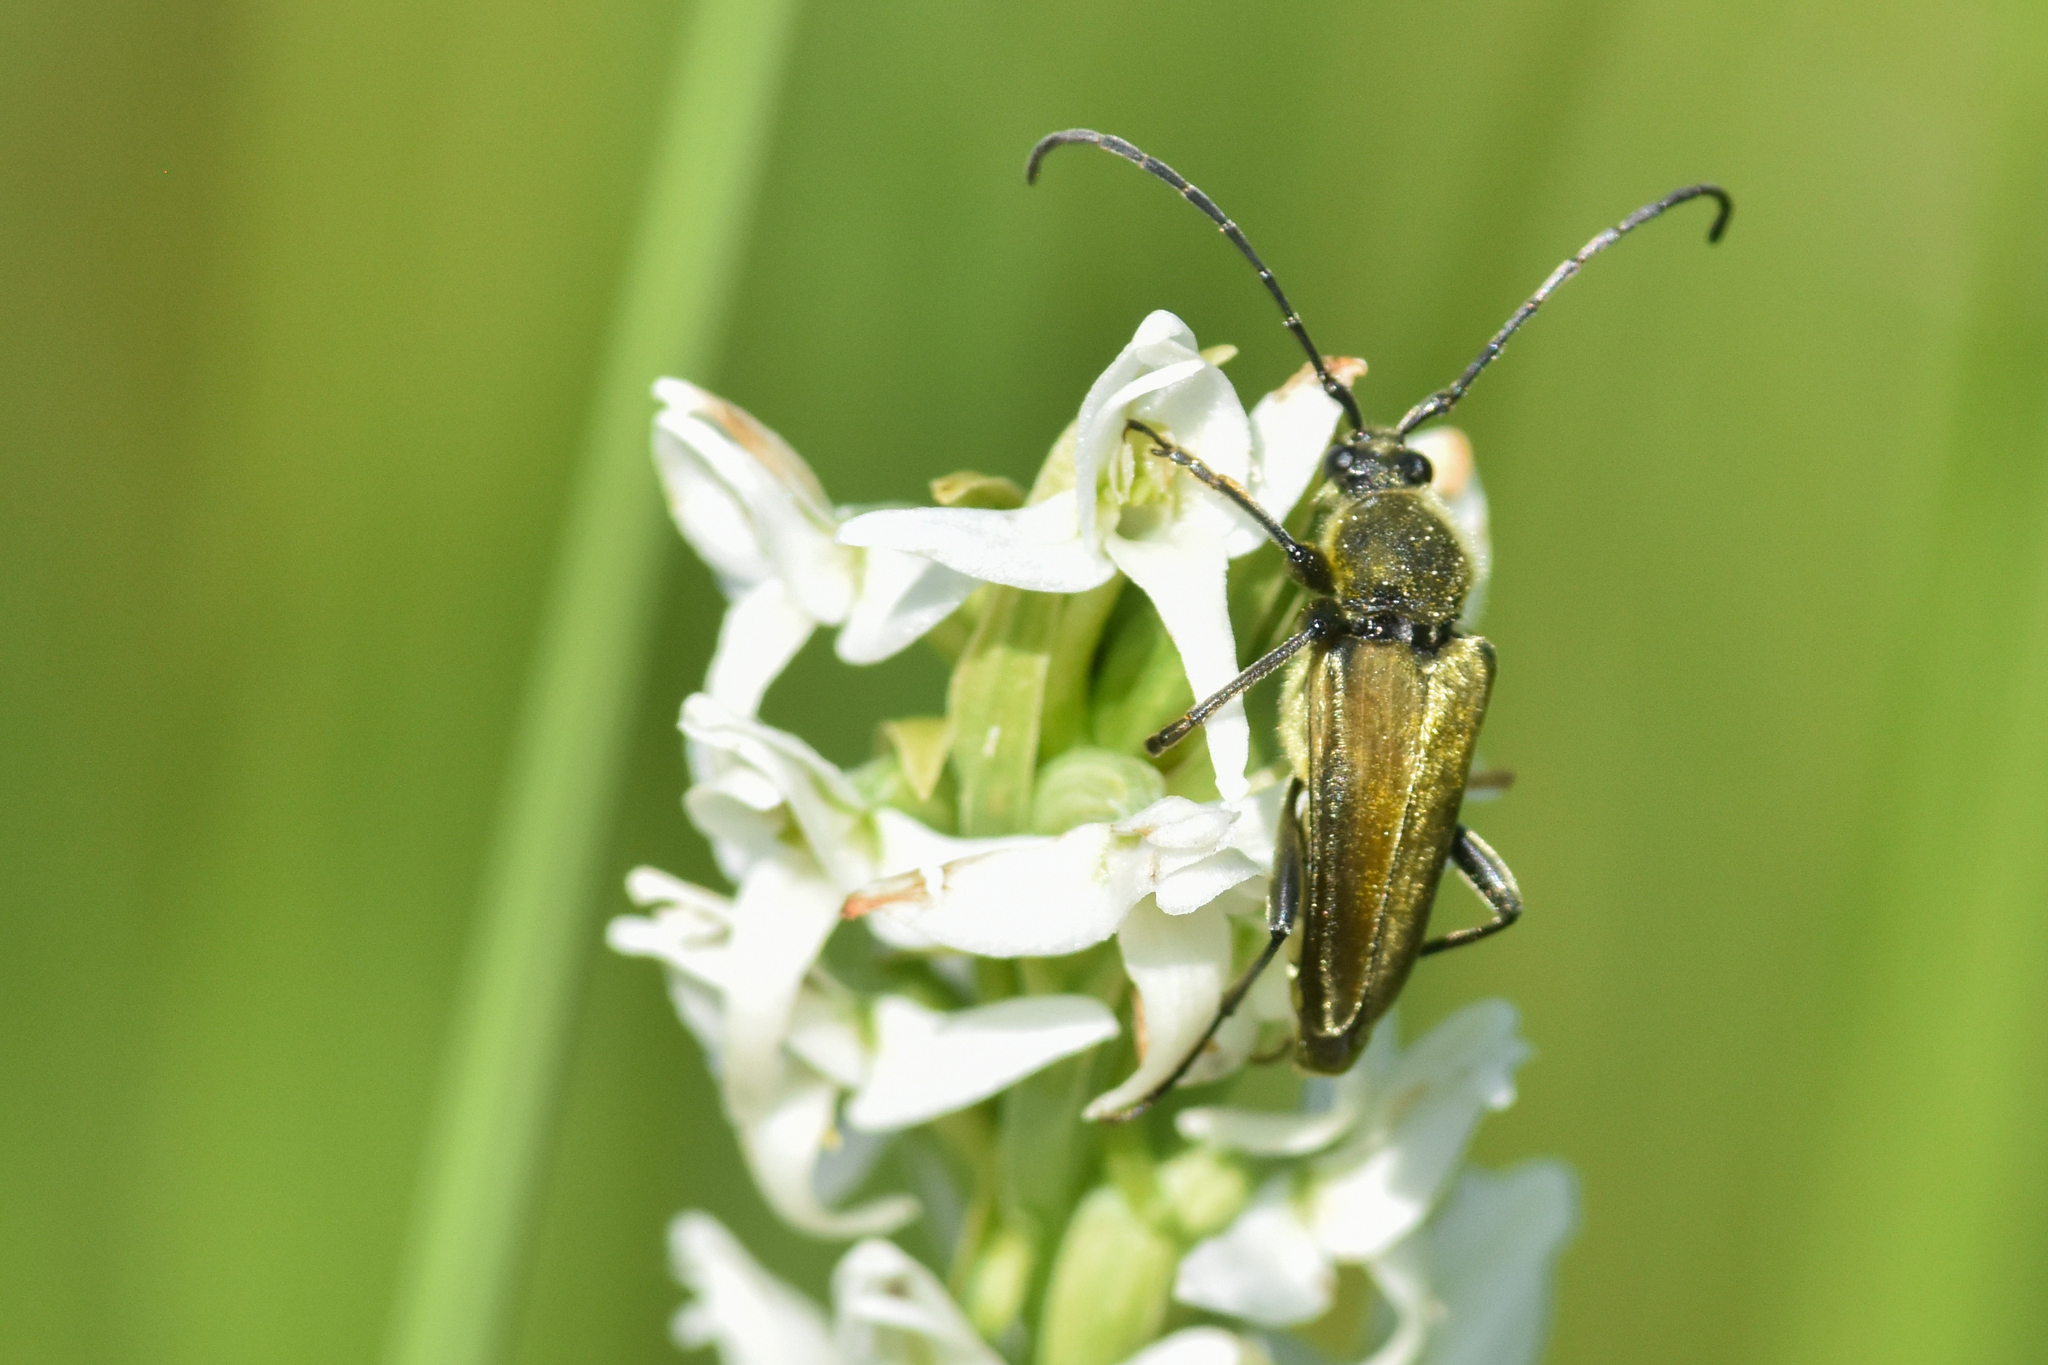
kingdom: Animalia
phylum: Arthropoda
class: Insecta
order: Coleoptera
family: Cerambycidae
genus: Cosmosalia
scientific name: Cosmosalia chrysocoma
